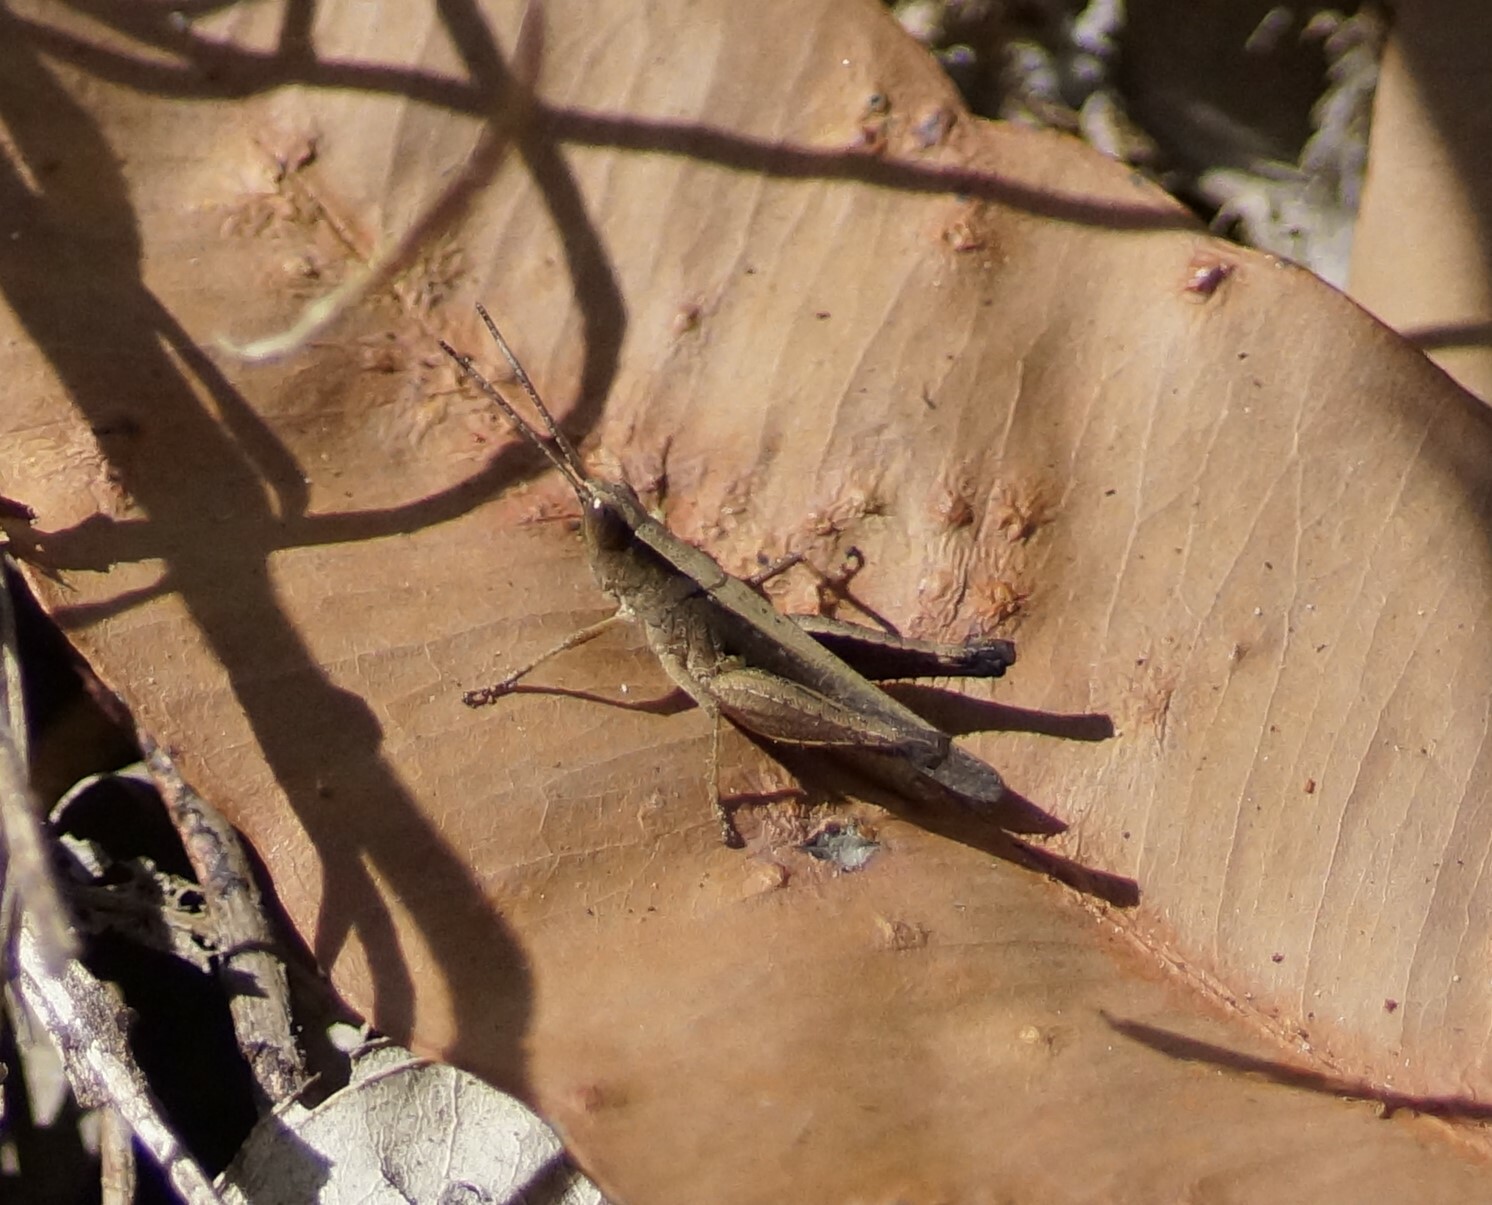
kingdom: Animalia
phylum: Arthropoda
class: Insecta
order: Orthoptera
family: Acrididae
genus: Rectitropis
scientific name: Rectitropis exclusa
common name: Territory white-tips
